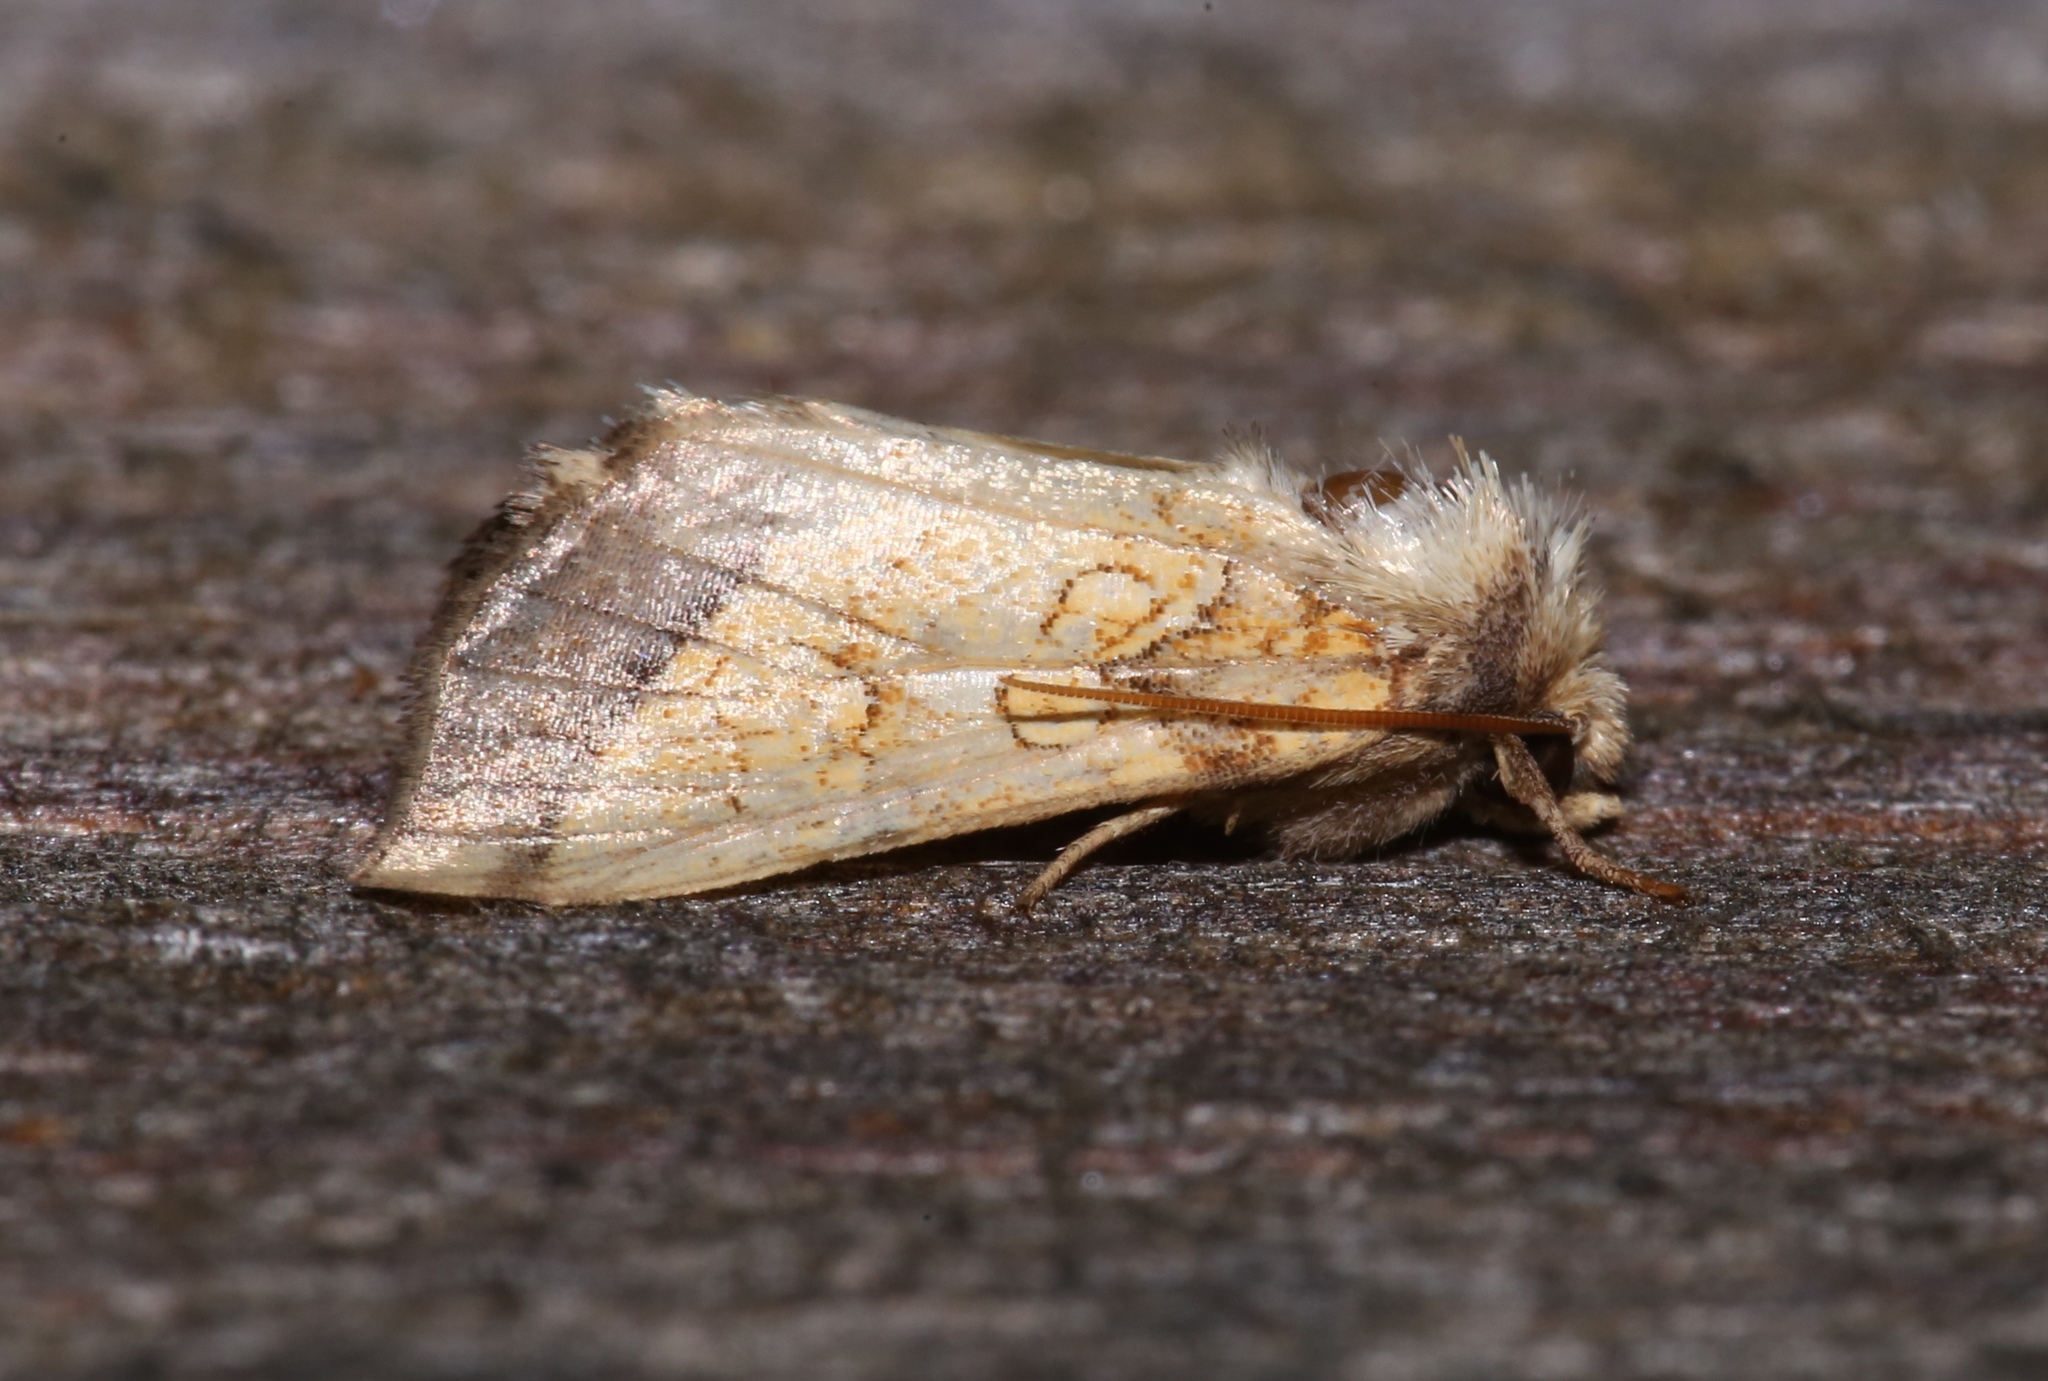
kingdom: Animalia
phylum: Arthropoda
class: Insecta
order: Lepidoptera
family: Noctuidae
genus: Papaipema
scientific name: Papaipema rigida
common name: Rigid sunflower borer moth
